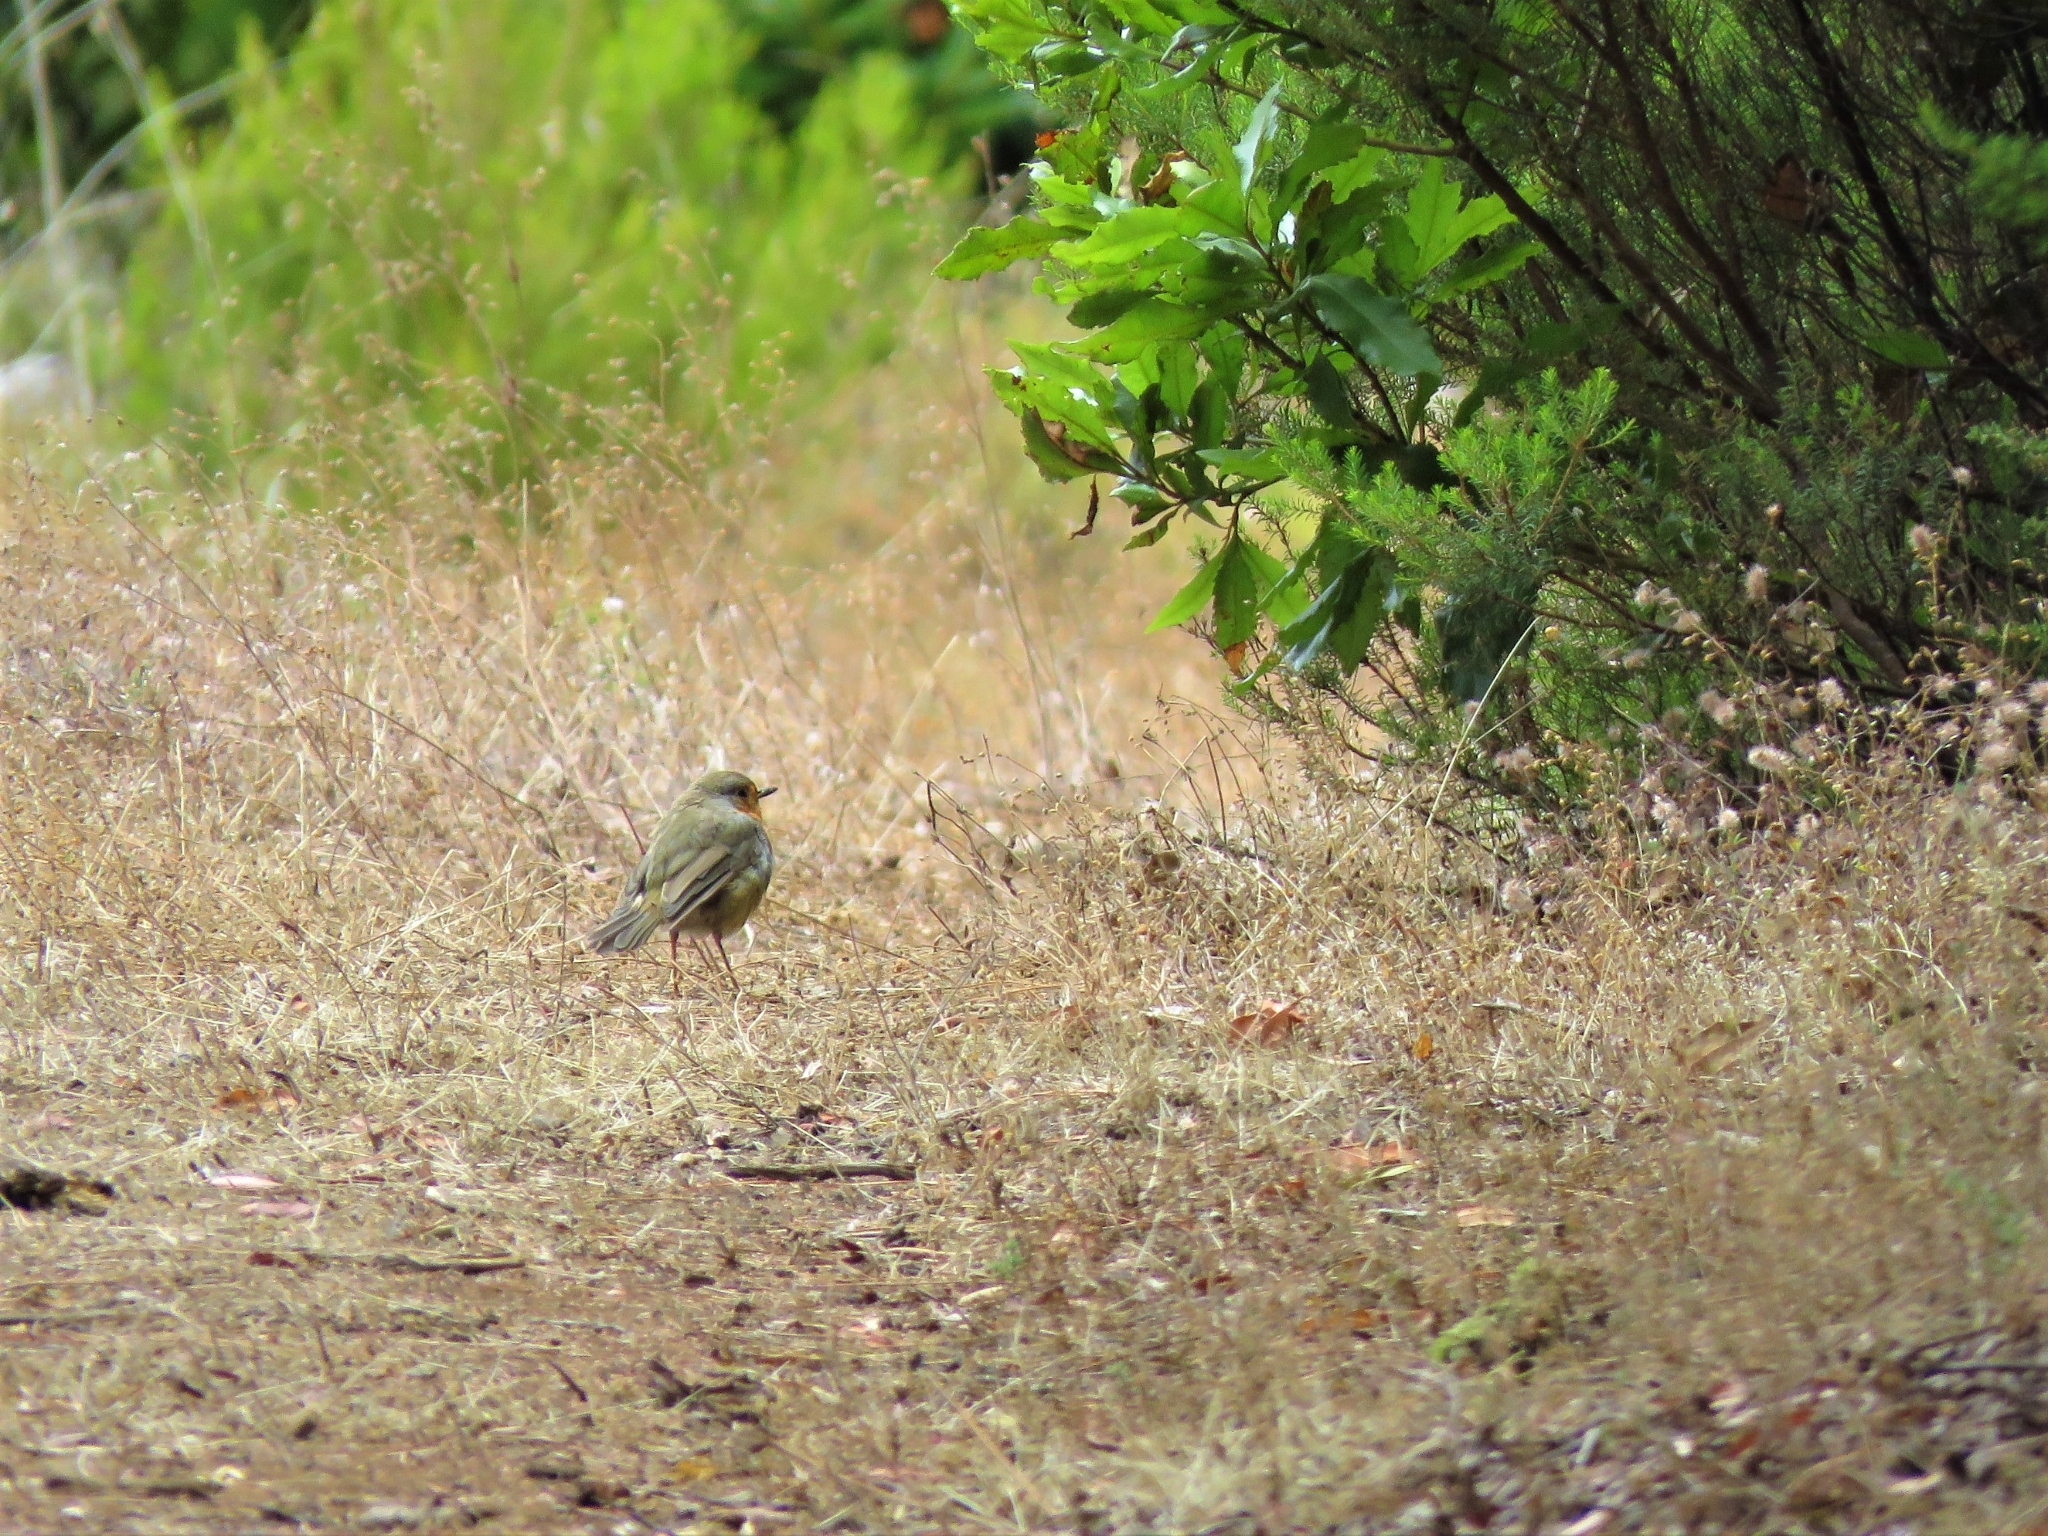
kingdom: Animalia
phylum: Chordata
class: Aves
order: Passeriformes
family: Muscicapidae
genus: Erithacus
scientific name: Erithacus rubecula
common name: European robin
